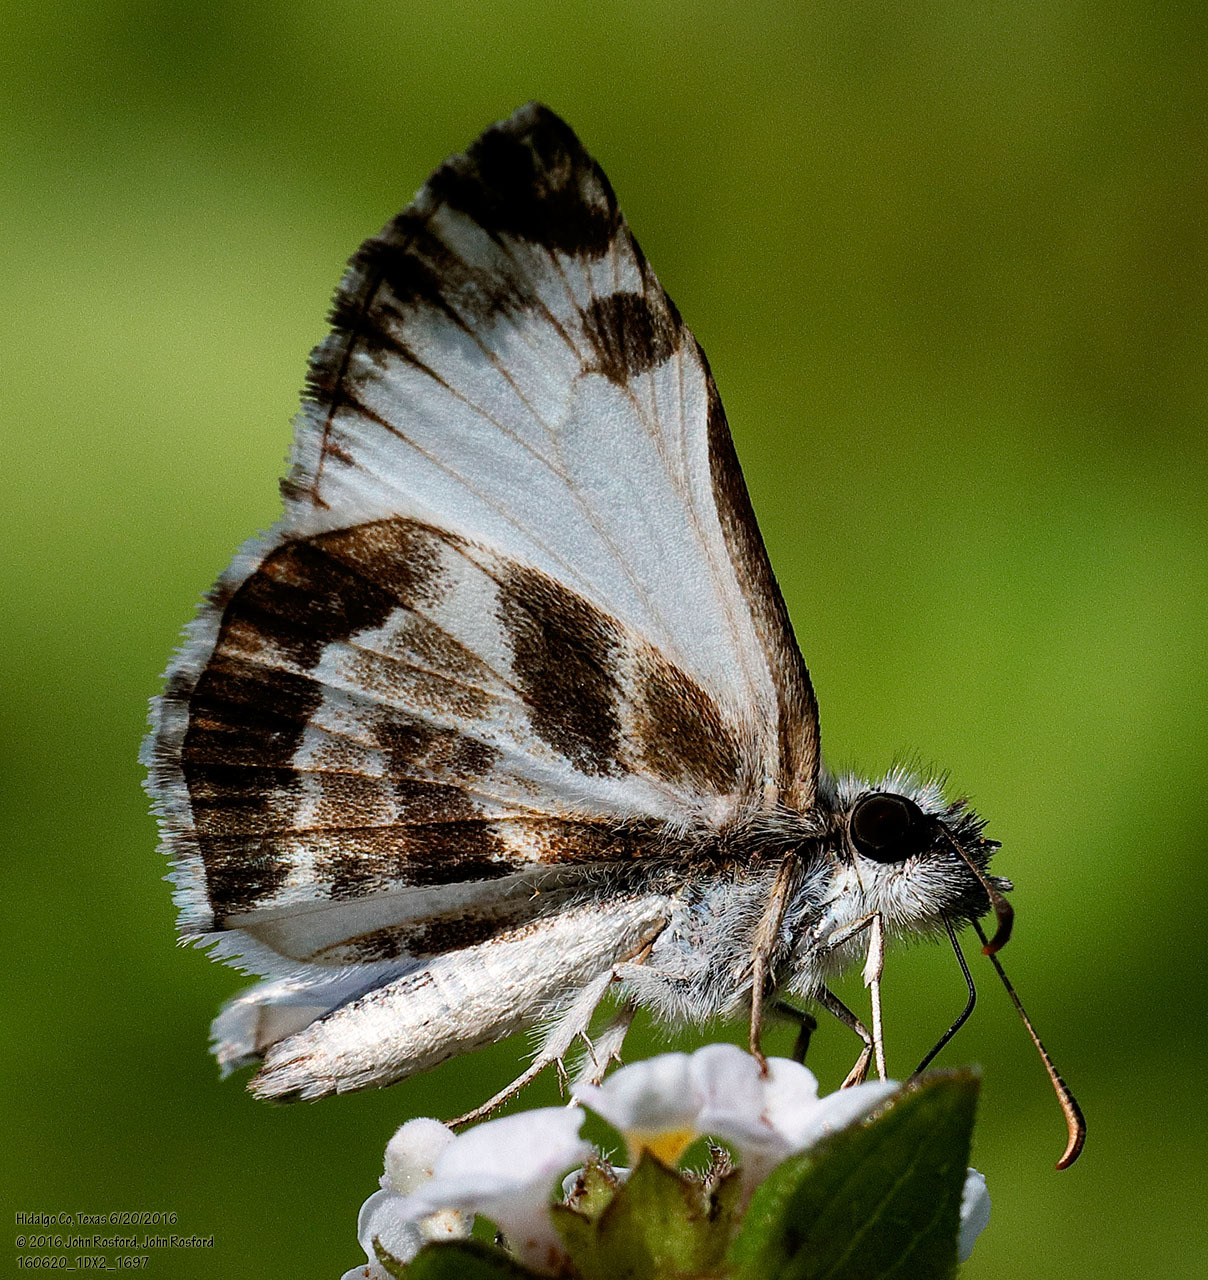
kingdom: Animalia
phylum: Arthropoda
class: Insecta
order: Lepidoptera
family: Hesperiidae
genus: Heliopetes
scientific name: Heliopetes macaira
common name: Turk's-cap white-skipper
